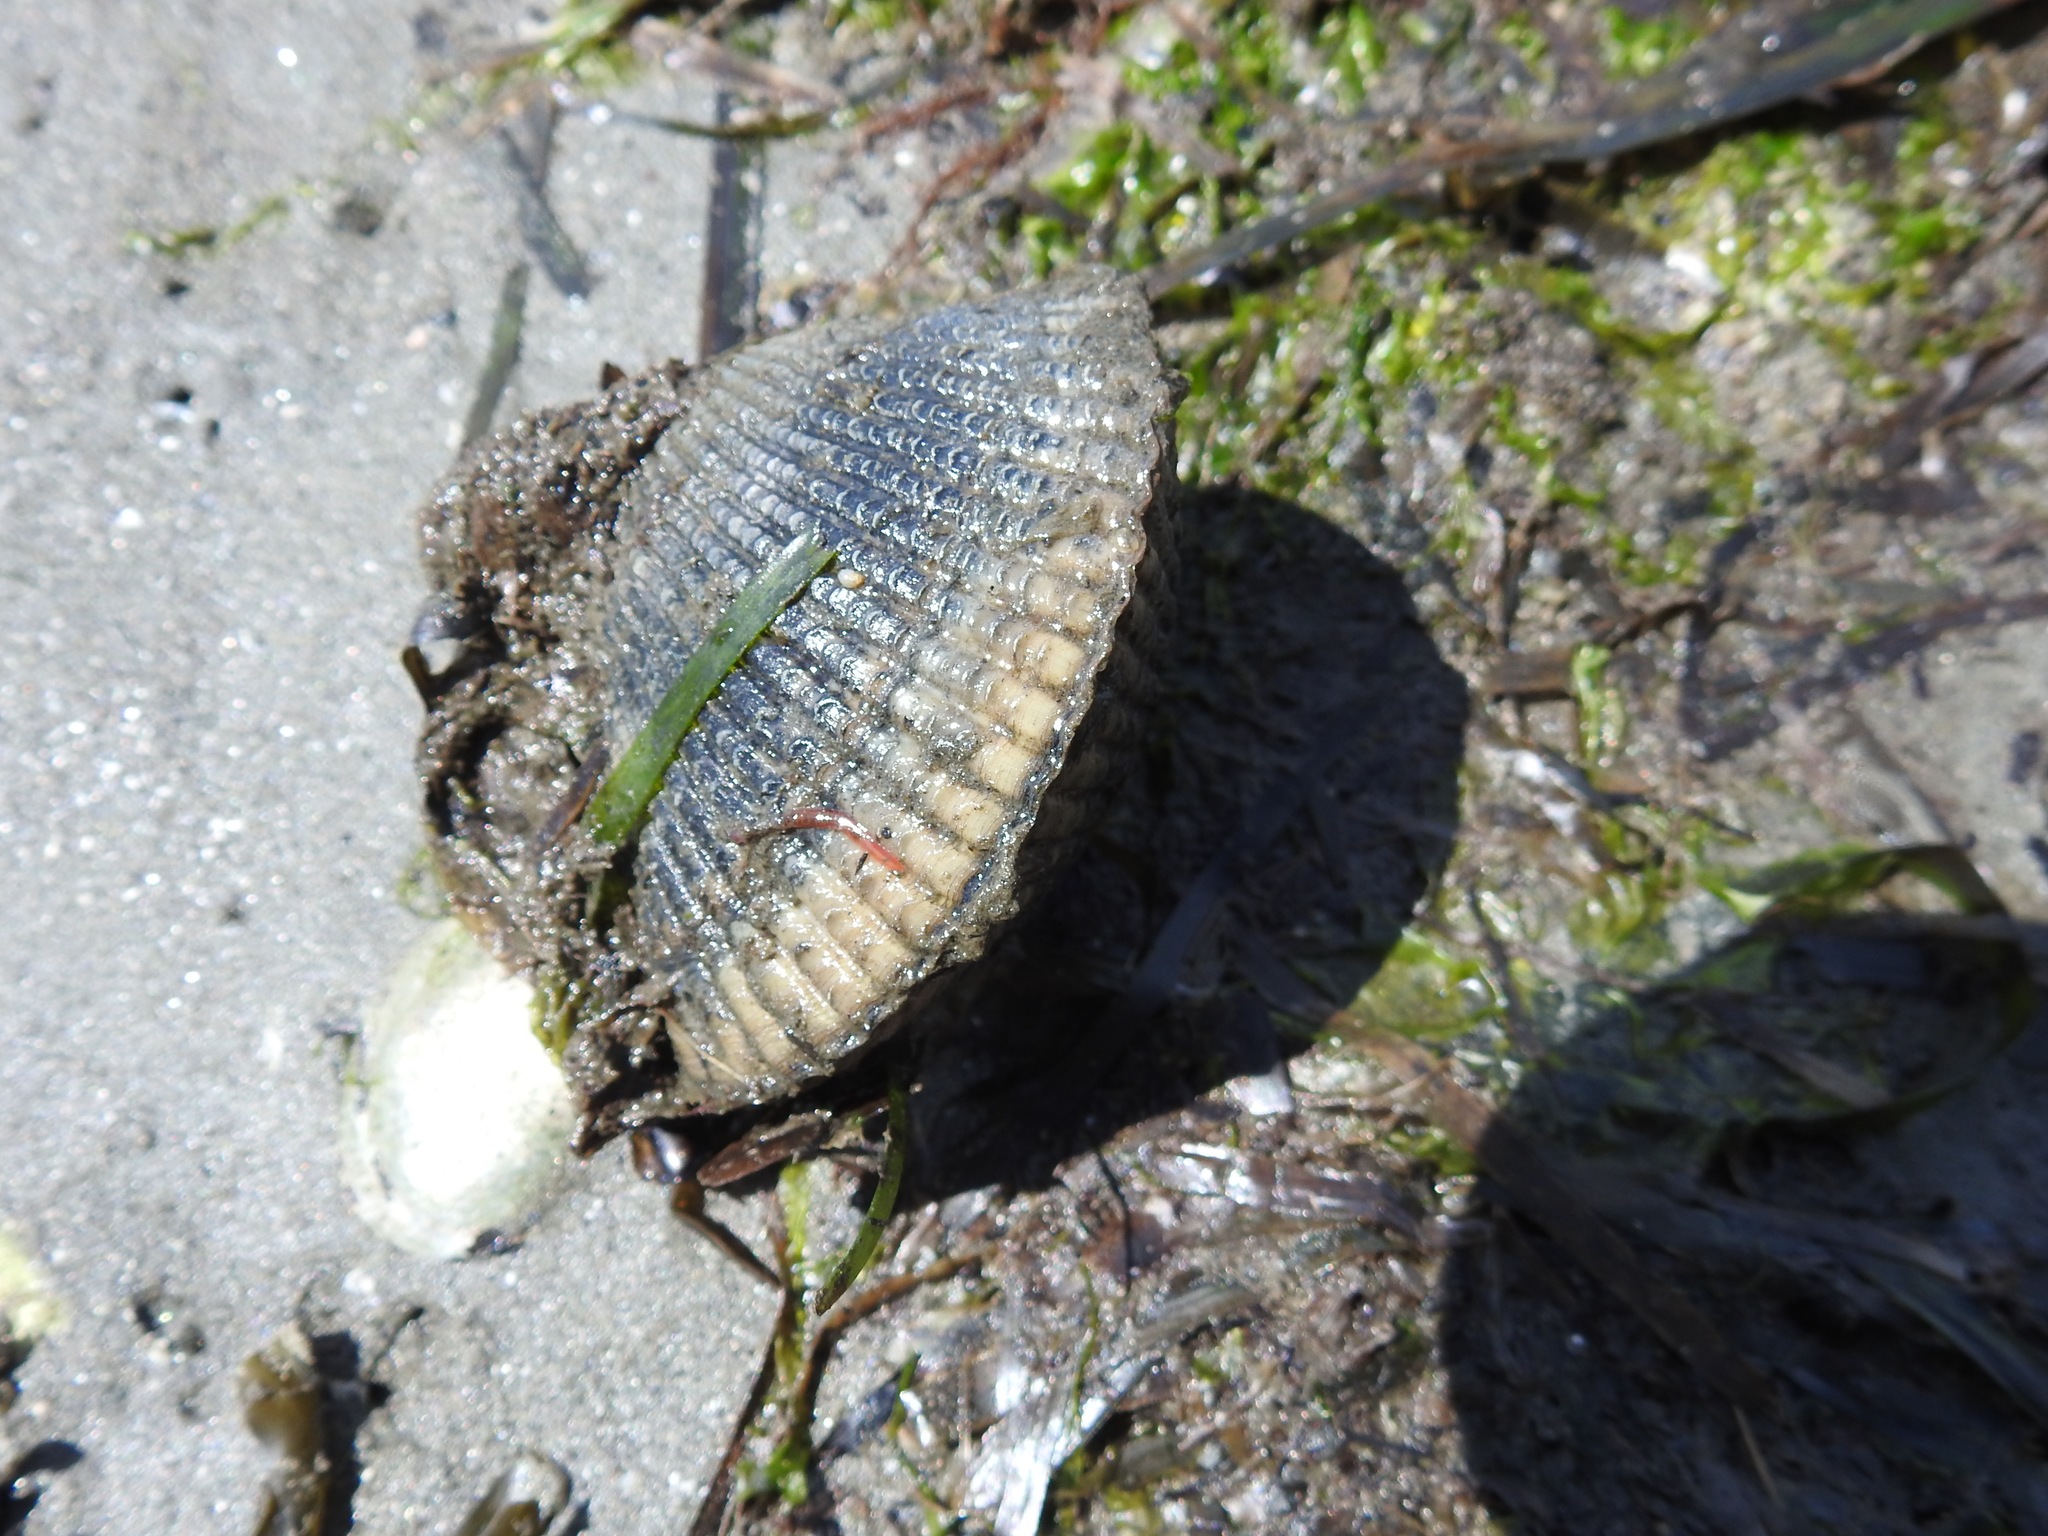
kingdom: Animalia
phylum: Mollusca
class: Bivalvia
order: Cardiida
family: Cardiidae
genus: Clinocardium
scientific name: Clinocardium nuttallii
